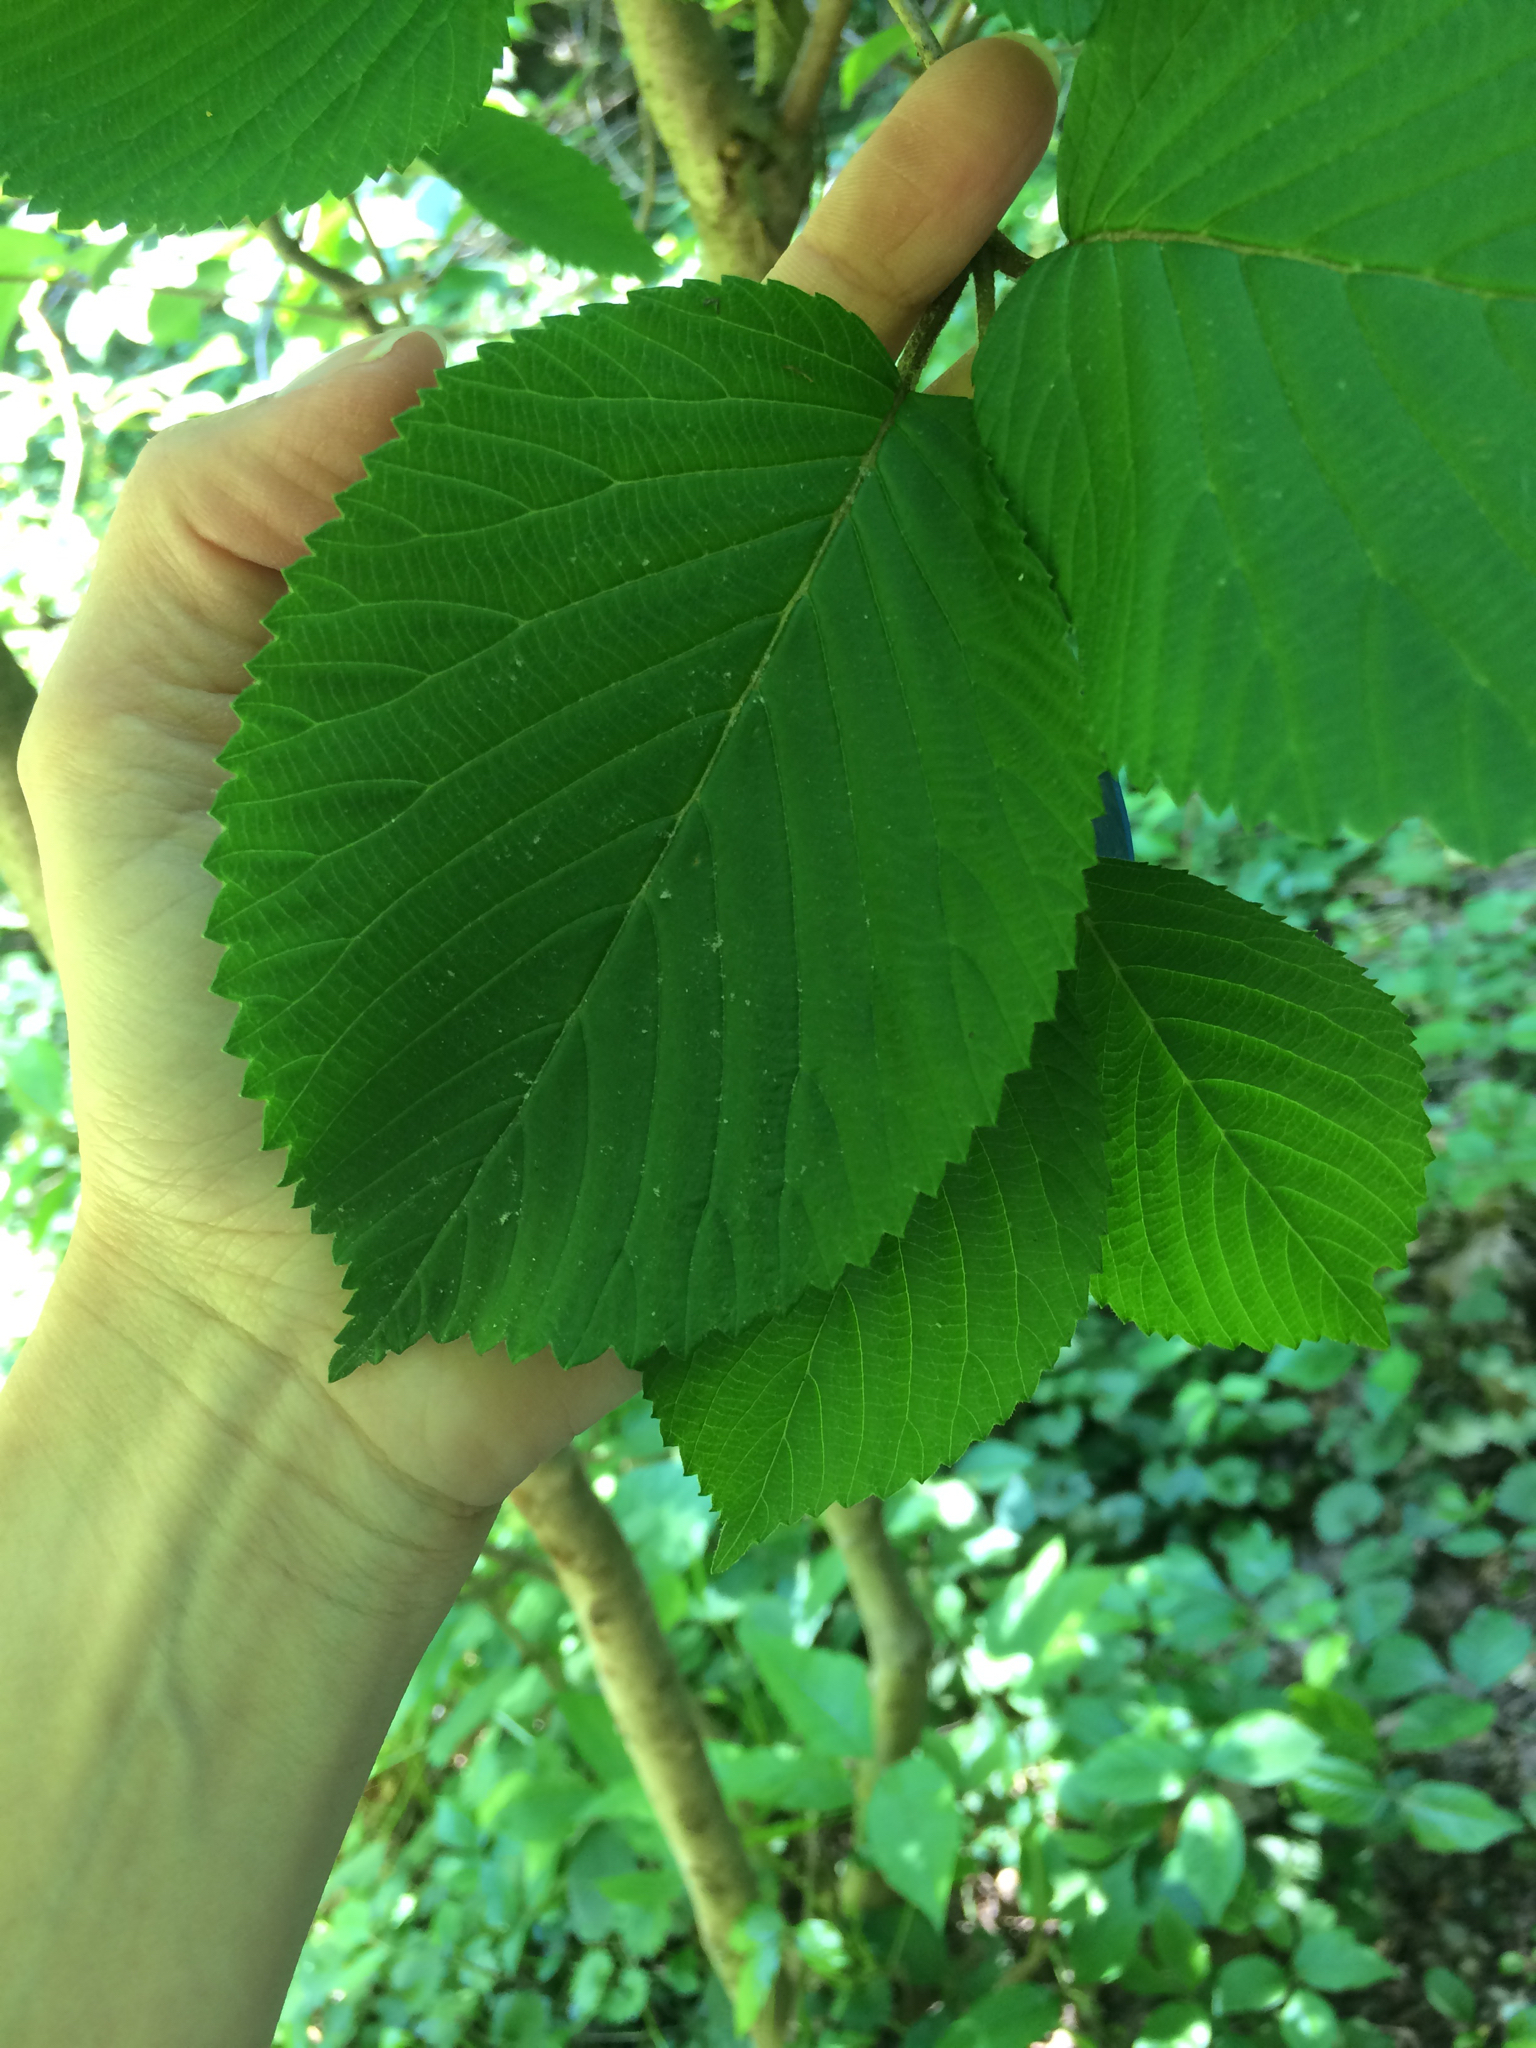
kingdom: Plantae
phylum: Tracheophyta
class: Magnoliopsida
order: Dipsacales
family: Viburnaceae
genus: Viburnum
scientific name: Viburnum plicatum
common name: Japanese snowball
